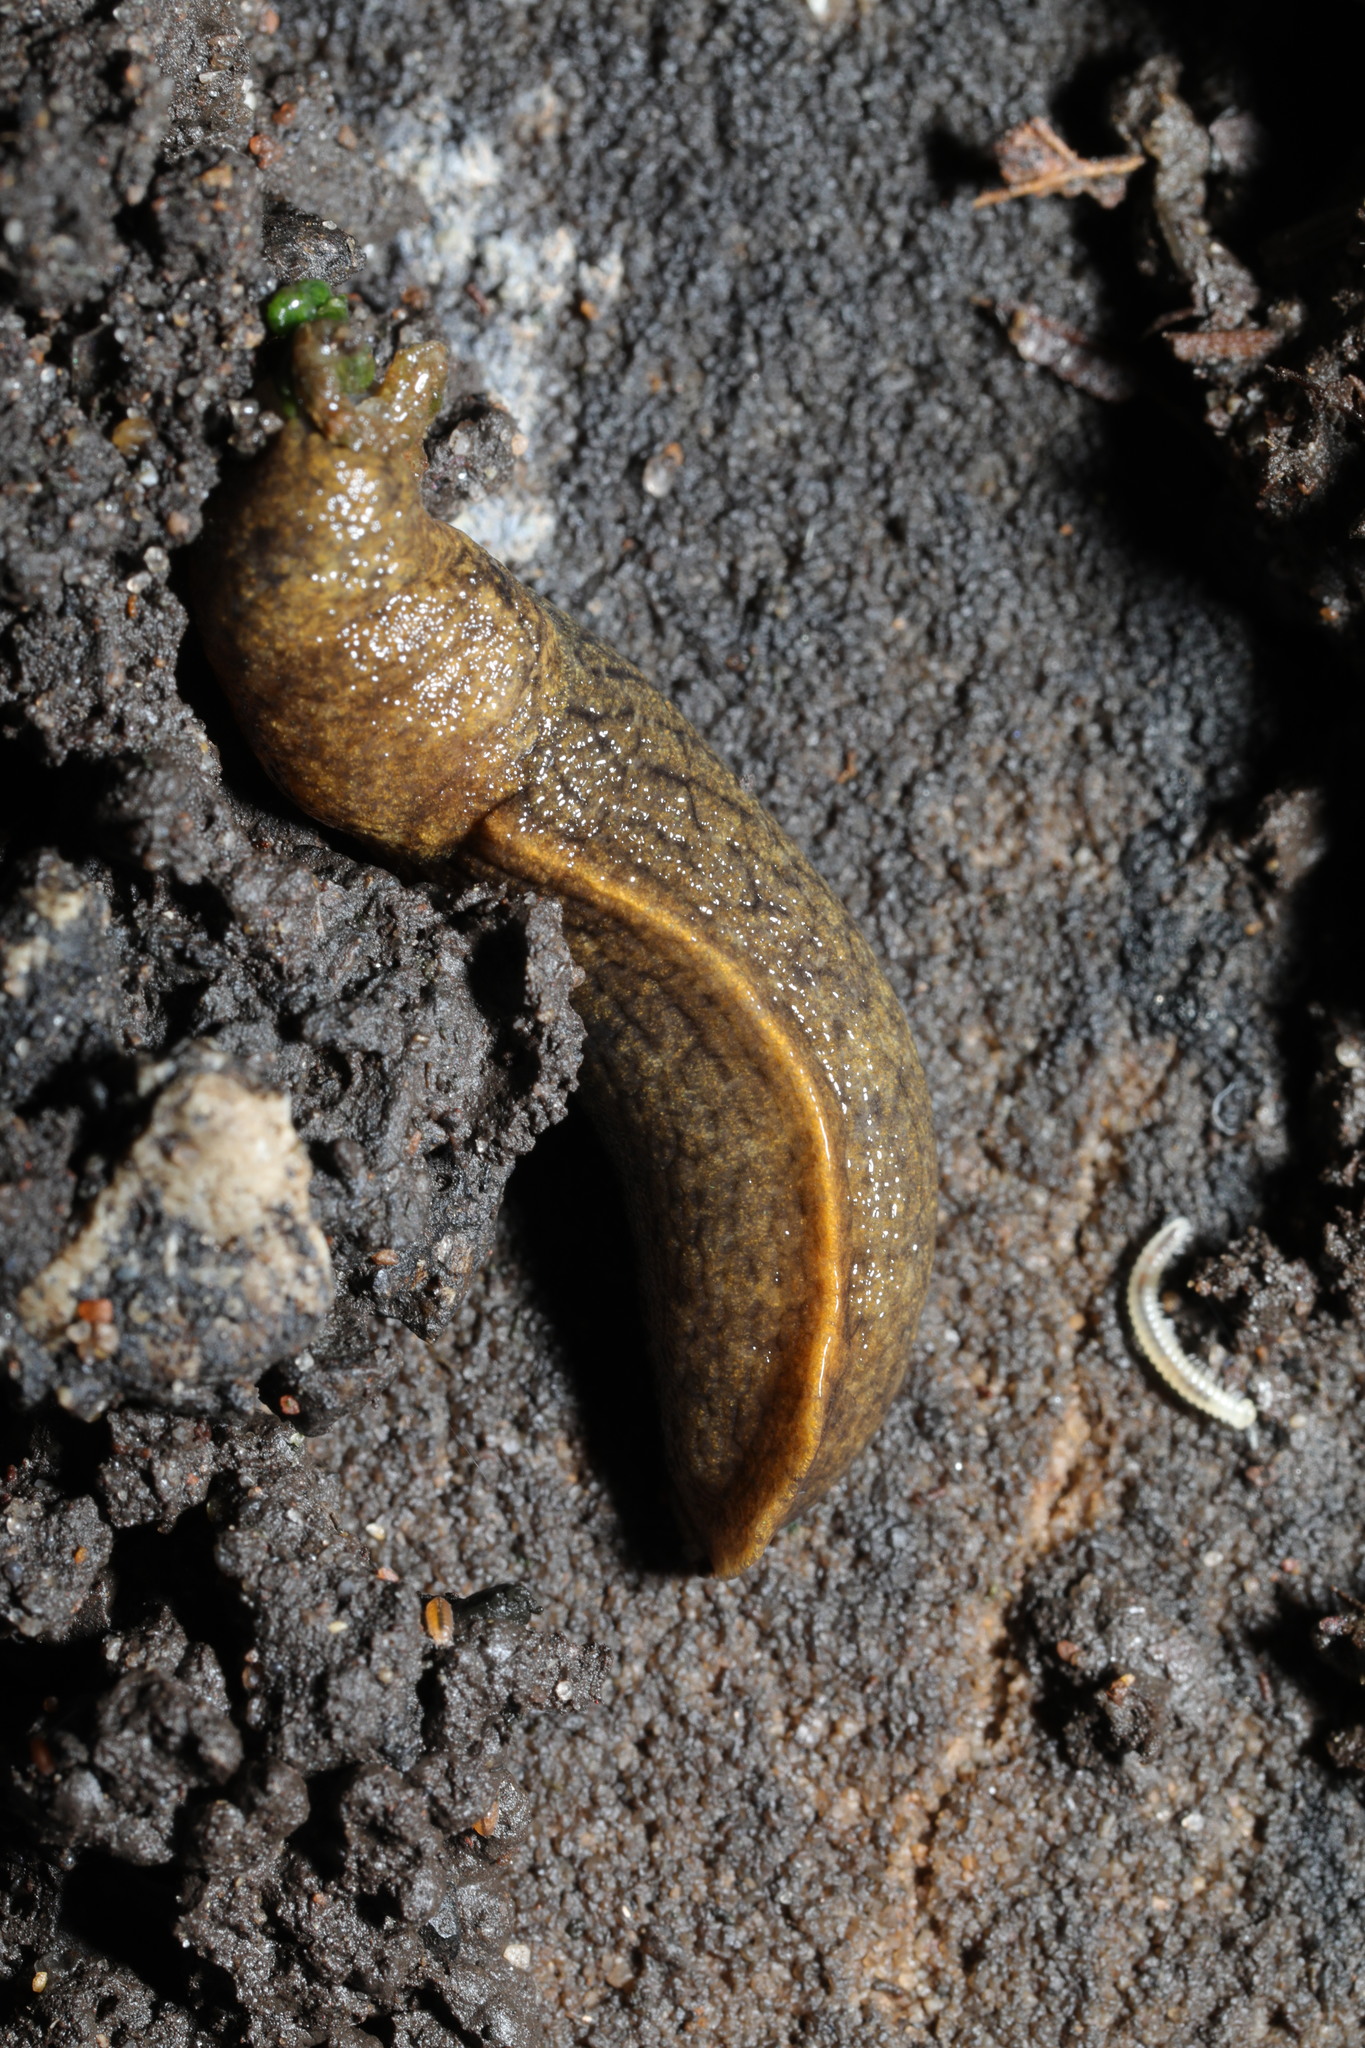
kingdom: Animalia
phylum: Mollusca
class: Gastropoda
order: Stylommatophora
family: Milacidae
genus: Tandonia
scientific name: Tandonia budapestensis
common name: Budapest slug
